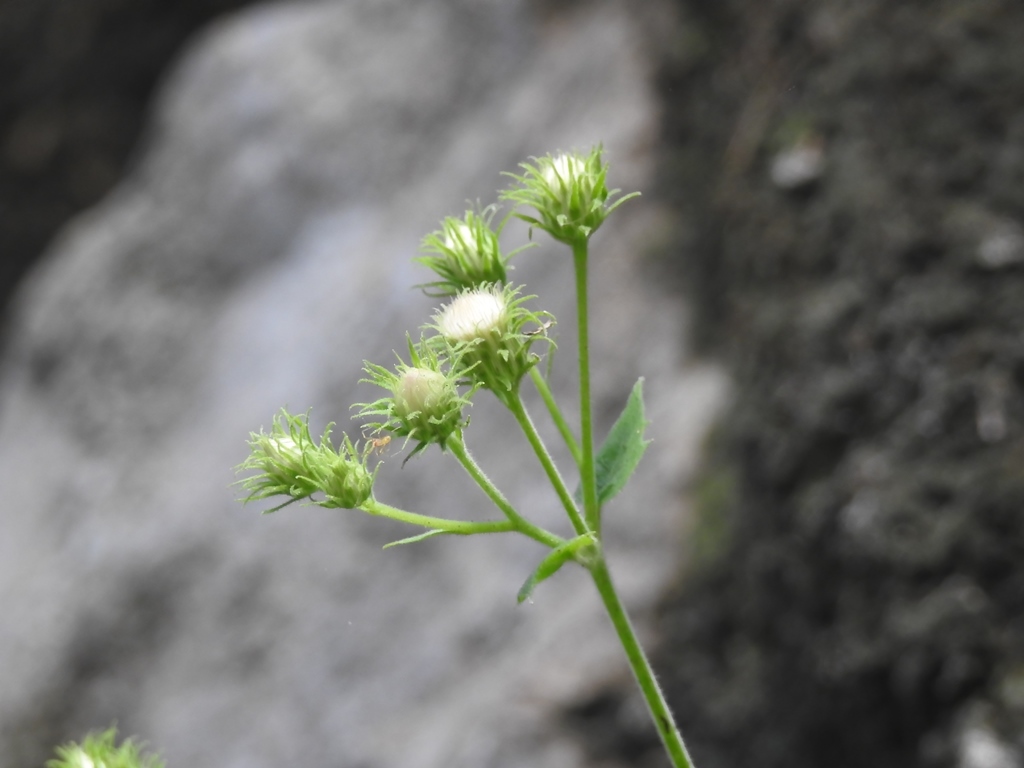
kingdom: Plantae
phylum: Tracheophyta
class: Magnoliopsida
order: Asterales
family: Asteraceae
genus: Eupatoriastrum
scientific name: Eupatoriastrum corvi
